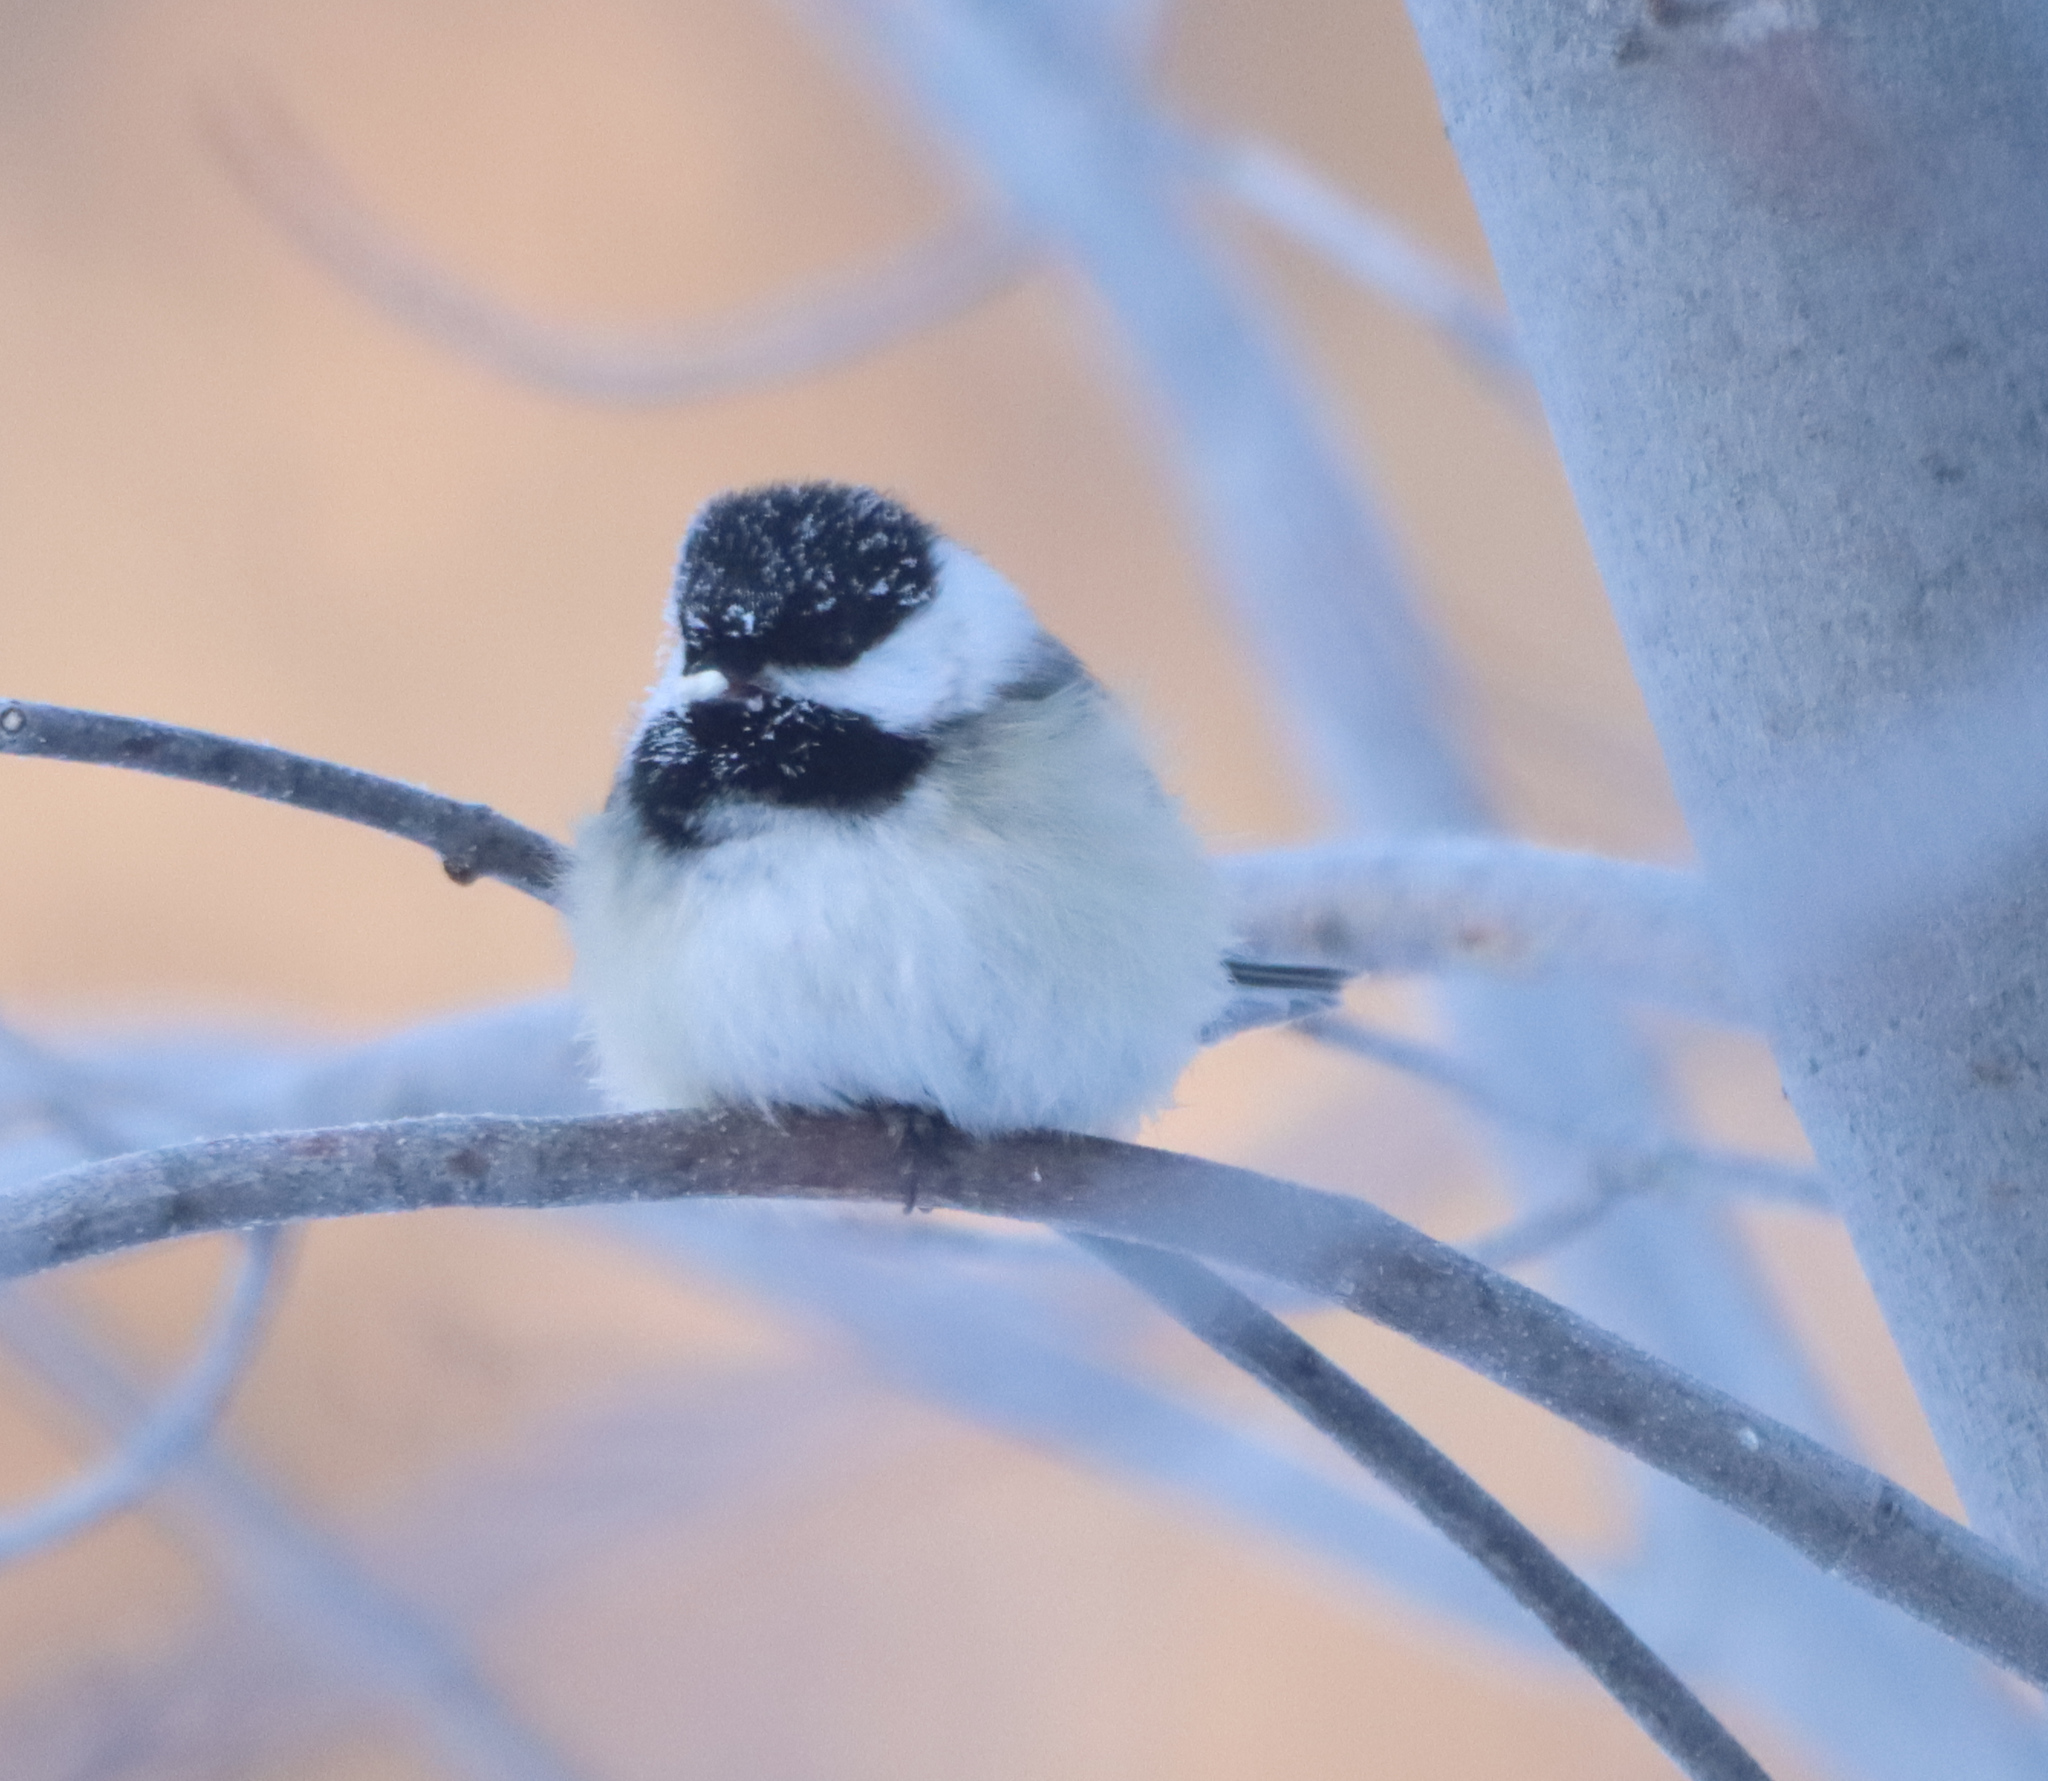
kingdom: Animalia
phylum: Chordata
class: Aves
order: Passeriformes
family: Paridae
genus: Poecile
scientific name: Poecile atricapillus
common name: Black-capped chickadee
